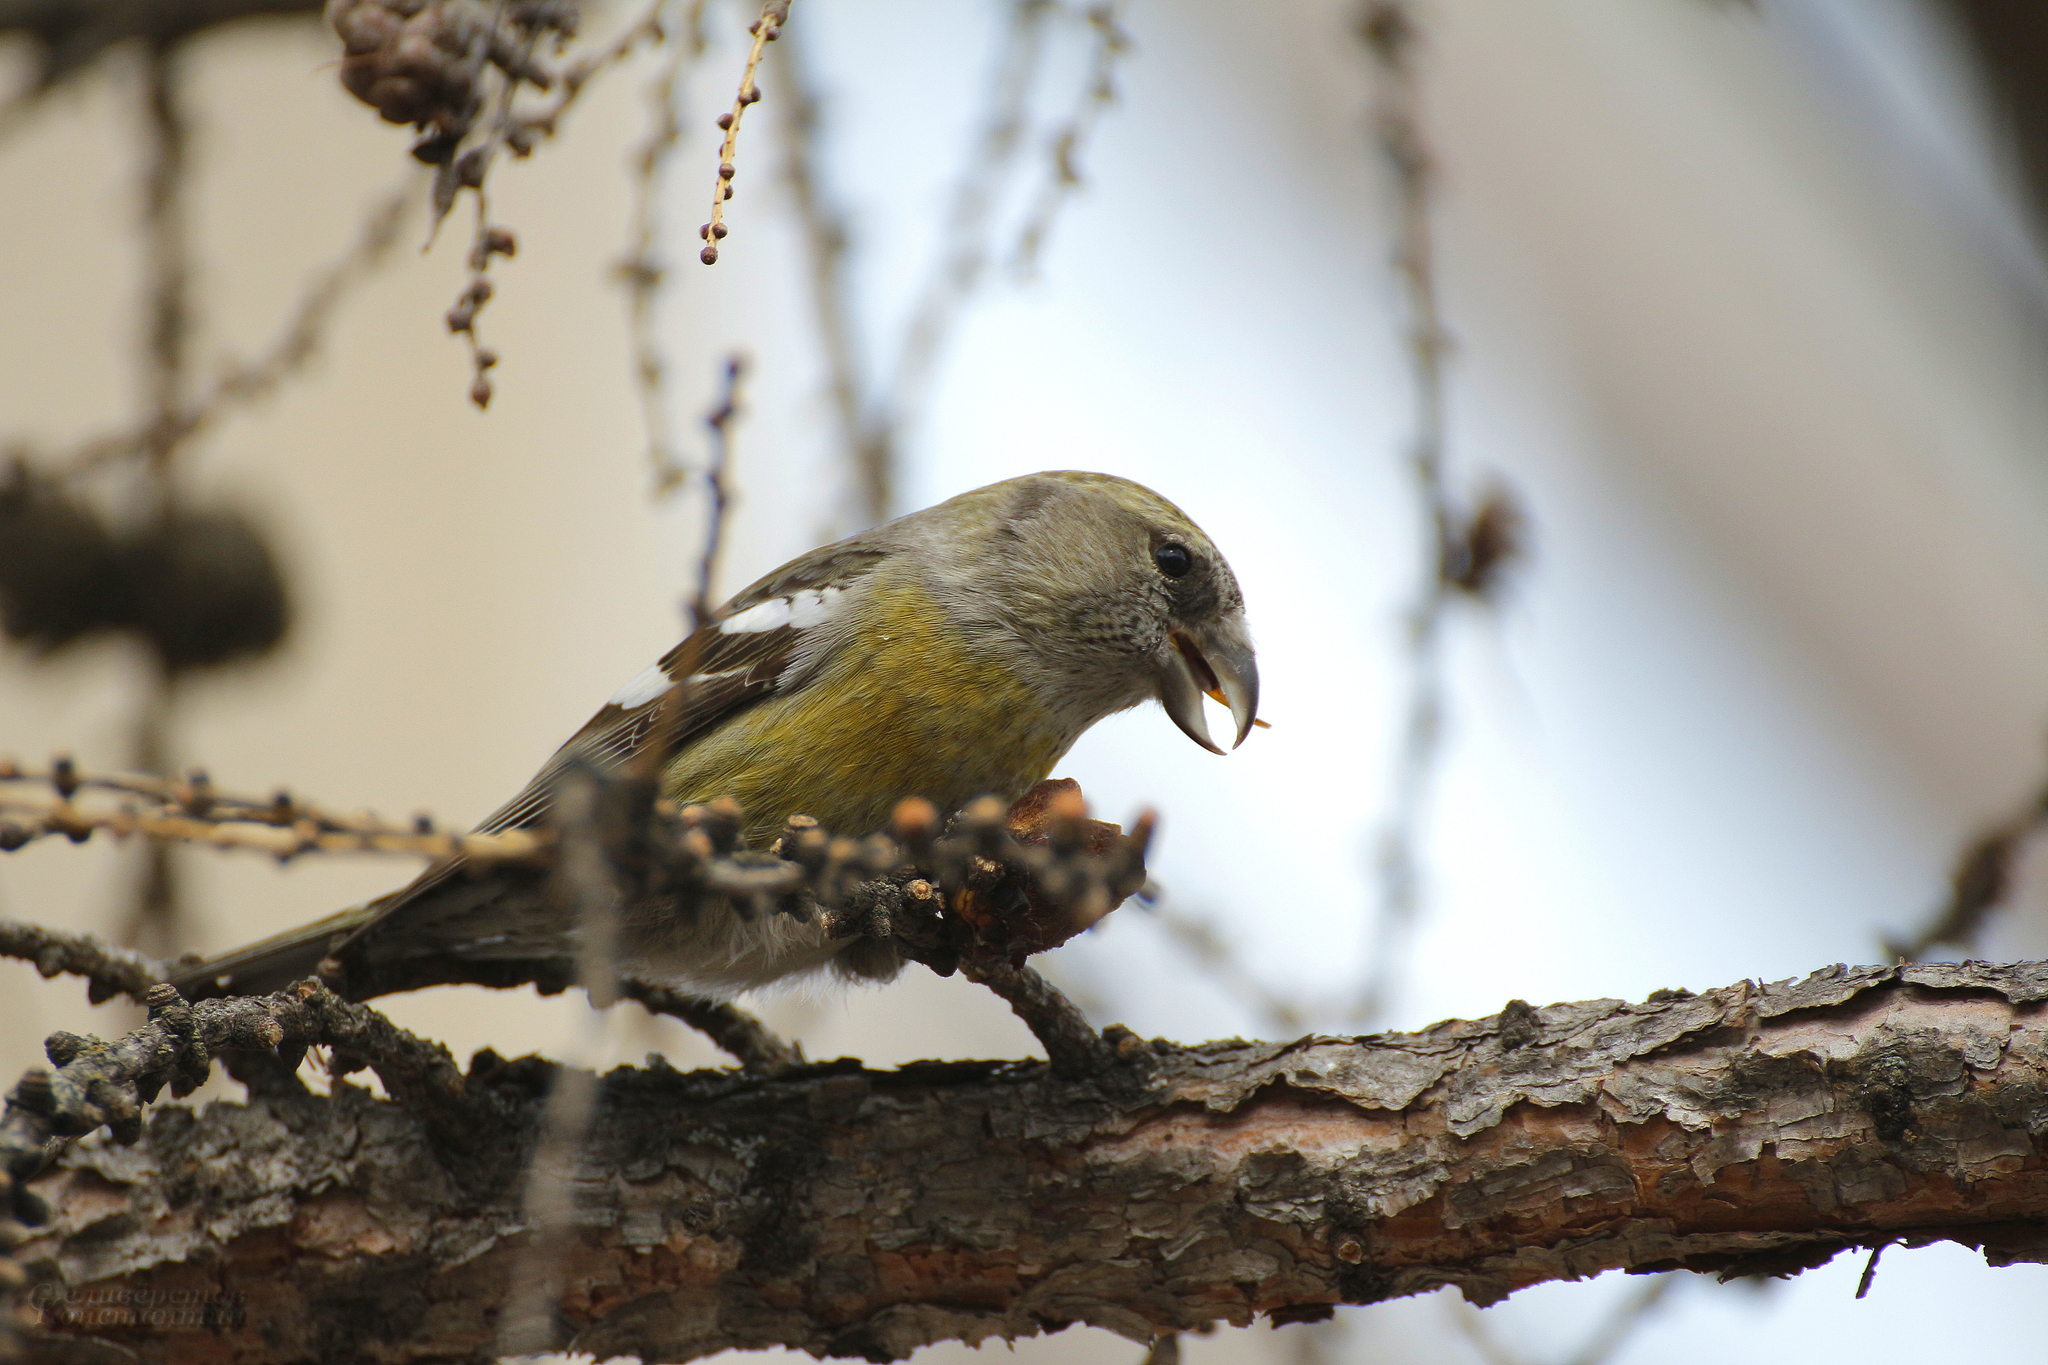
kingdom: Animalia
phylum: Chordata
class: Aves
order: Passeriformes
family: Fringillidae
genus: Loxia
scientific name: Loxia leucoptera
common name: Two-barred crossbill
